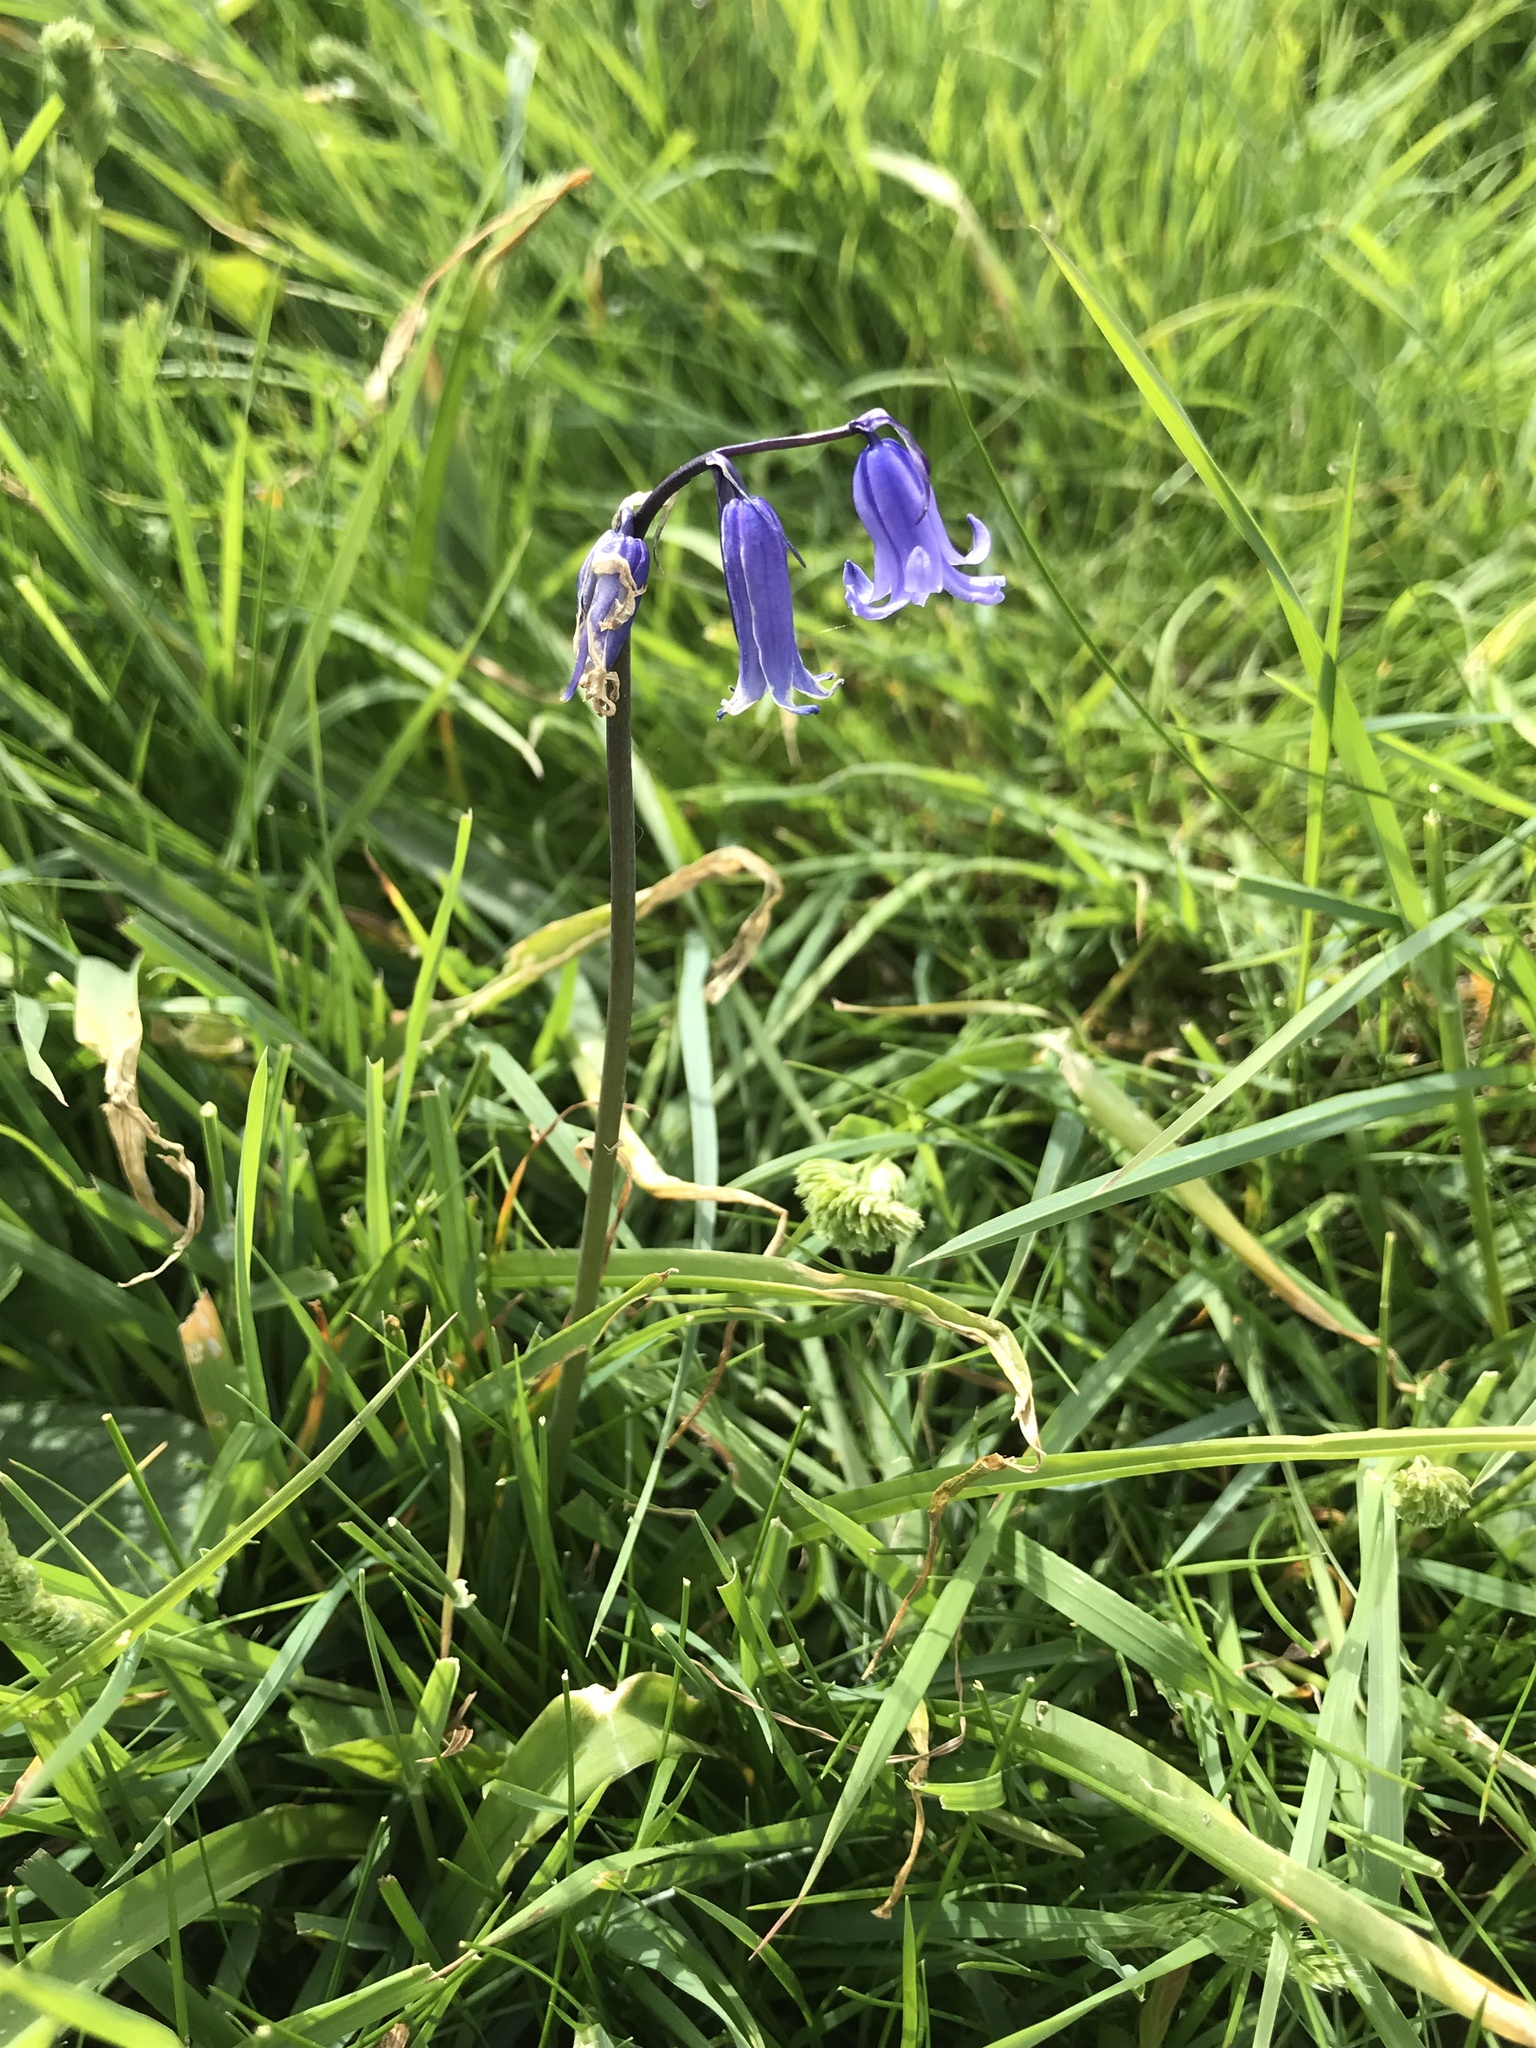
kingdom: Plantae
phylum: Tracheophyta
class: Liliopsida
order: Asparagales
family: Asparagaceae
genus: Hyacinthoides
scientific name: Hyacinthoides non-scripta
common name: Bluebell
